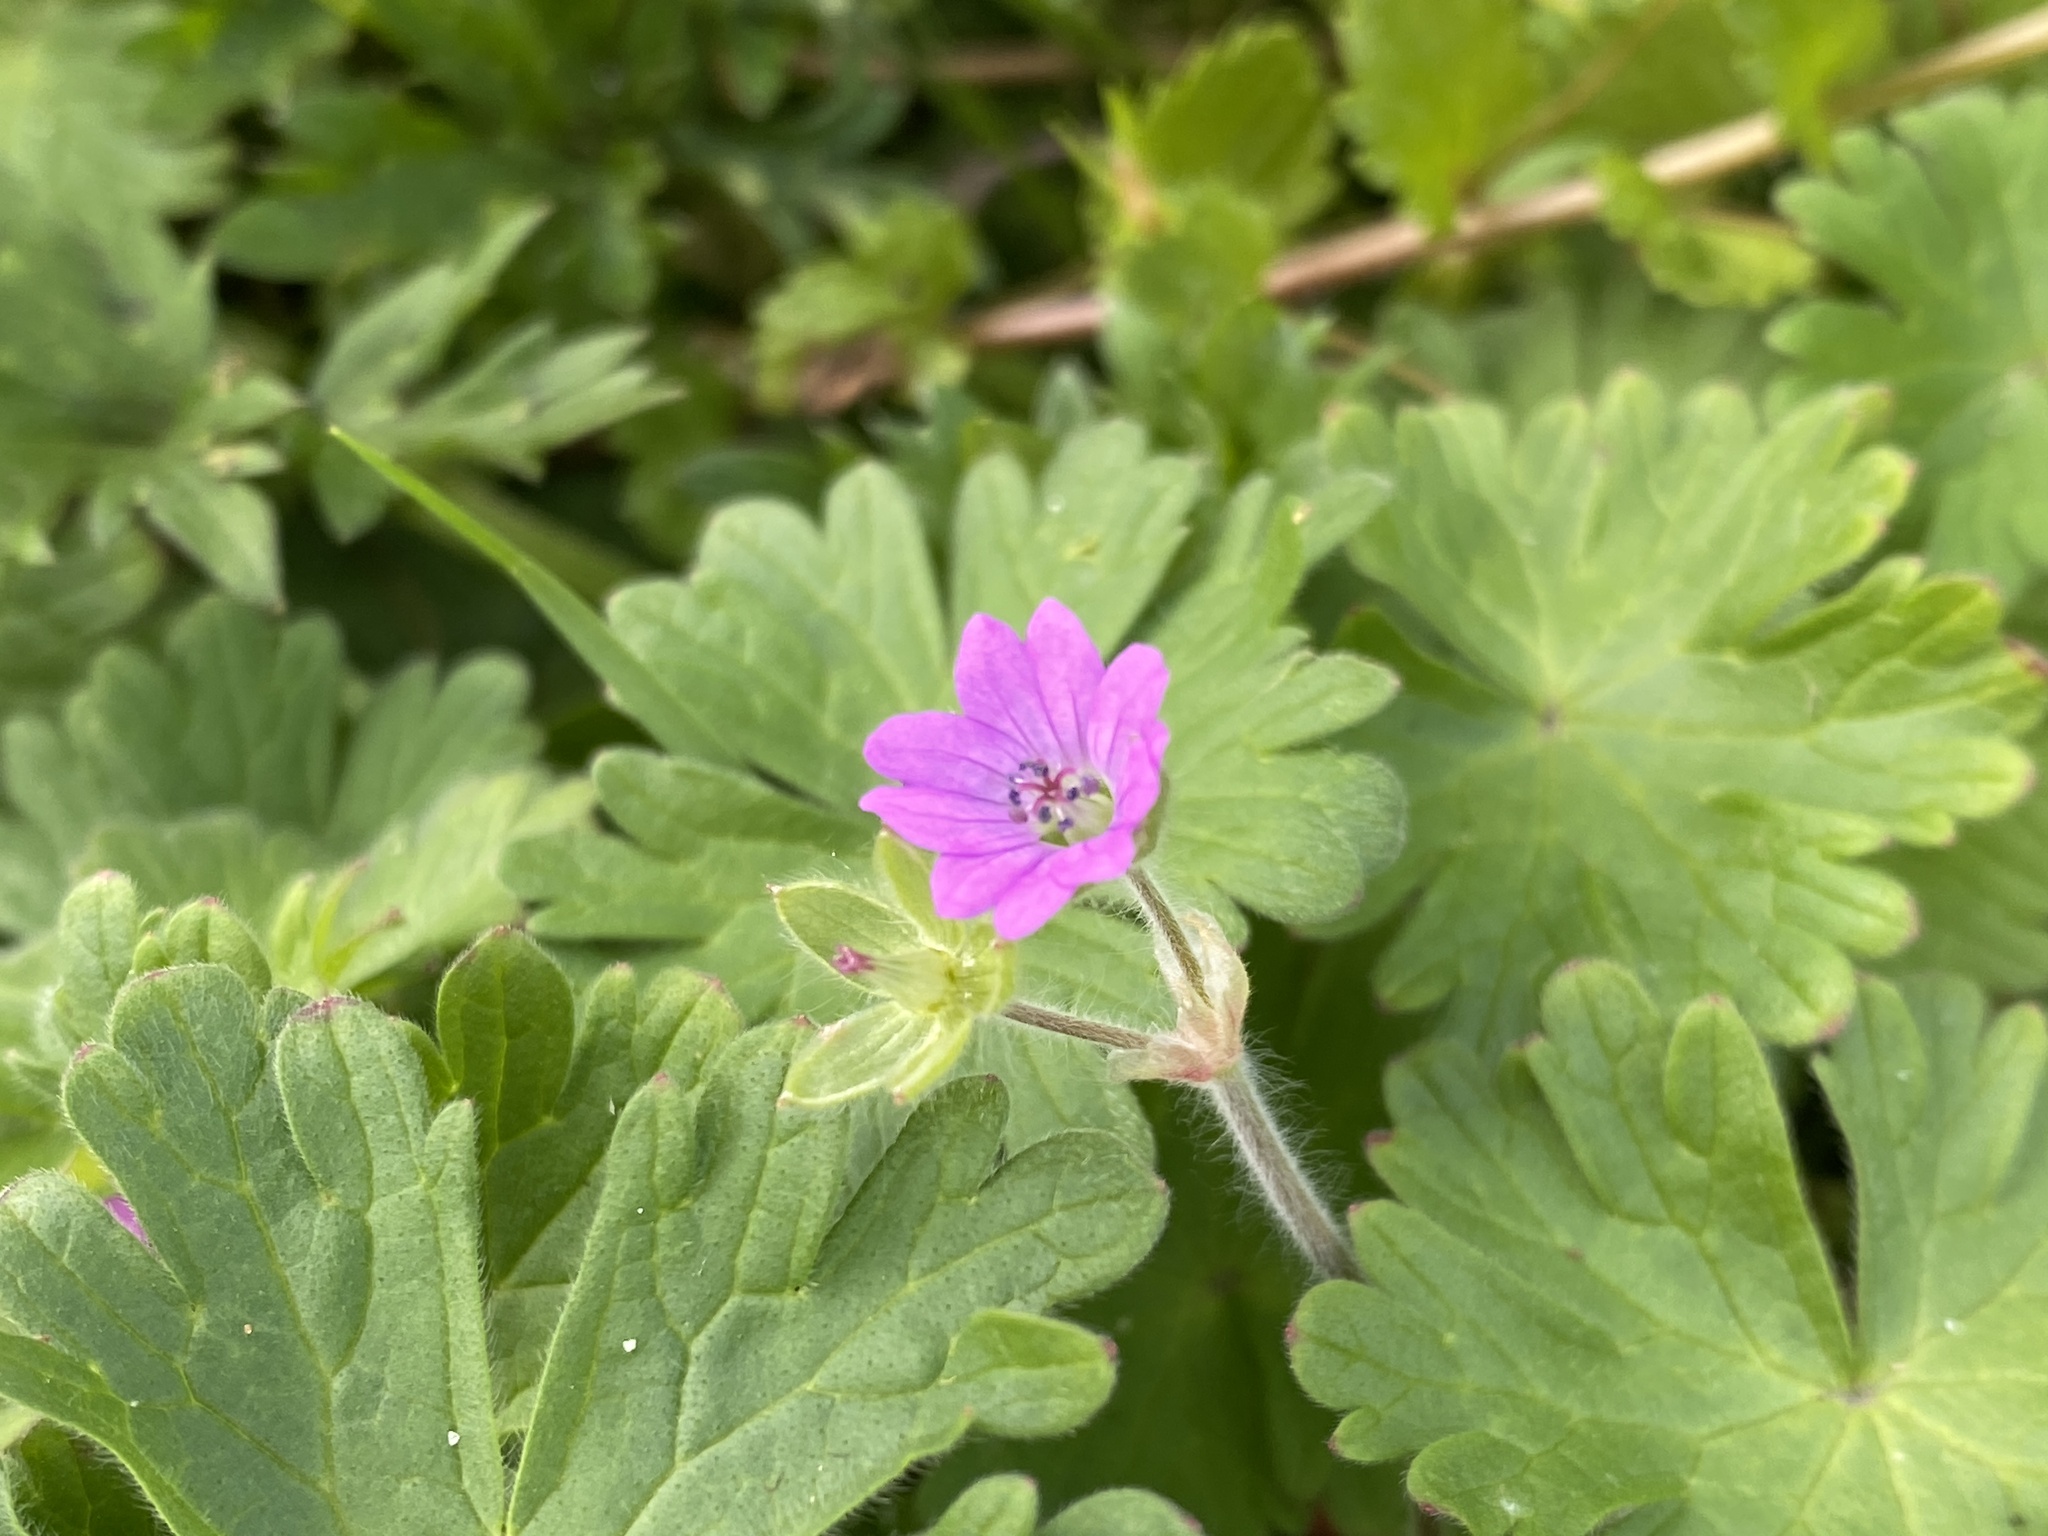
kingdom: Plantae
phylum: Tracheophyta
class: Magnoliopsida
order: Geraniales
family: Geraniaceae
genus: Geranium
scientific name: Geranium molle
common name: Dove's-foot crane's-bill
